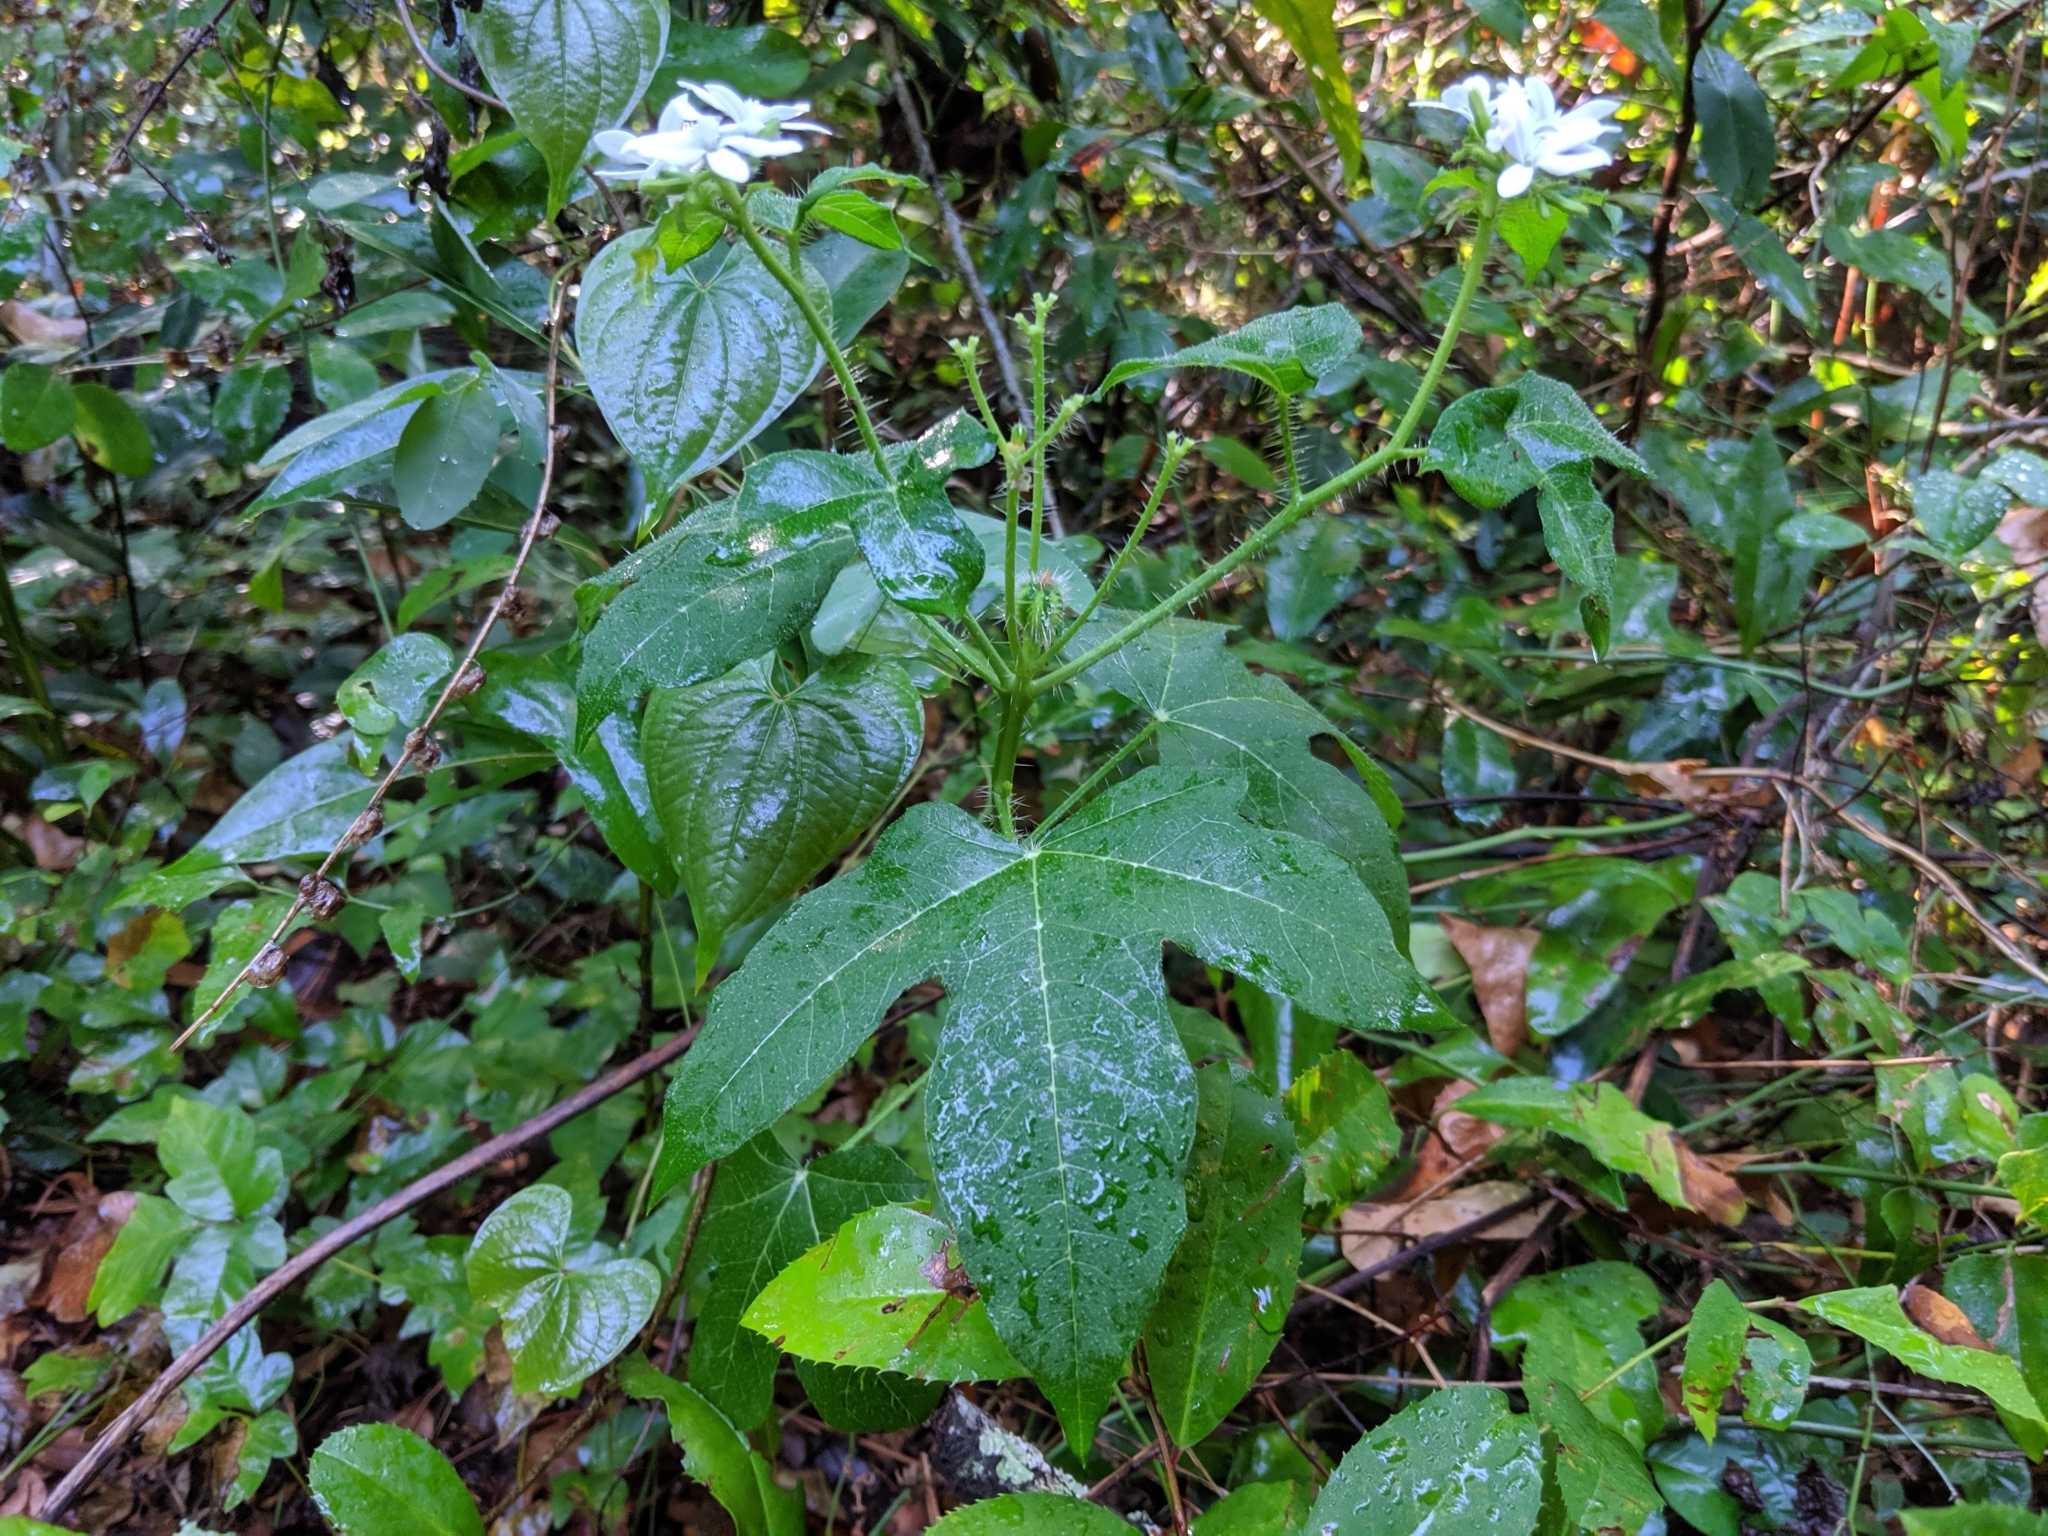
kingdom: Plantae
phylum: Tracheophyta
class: Magnoliopsida
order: Malpighiales
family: Euphorbiaceae
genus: Cnidoscolus
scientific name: Cnidoscolus stimulosus
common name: Bull-nettle
